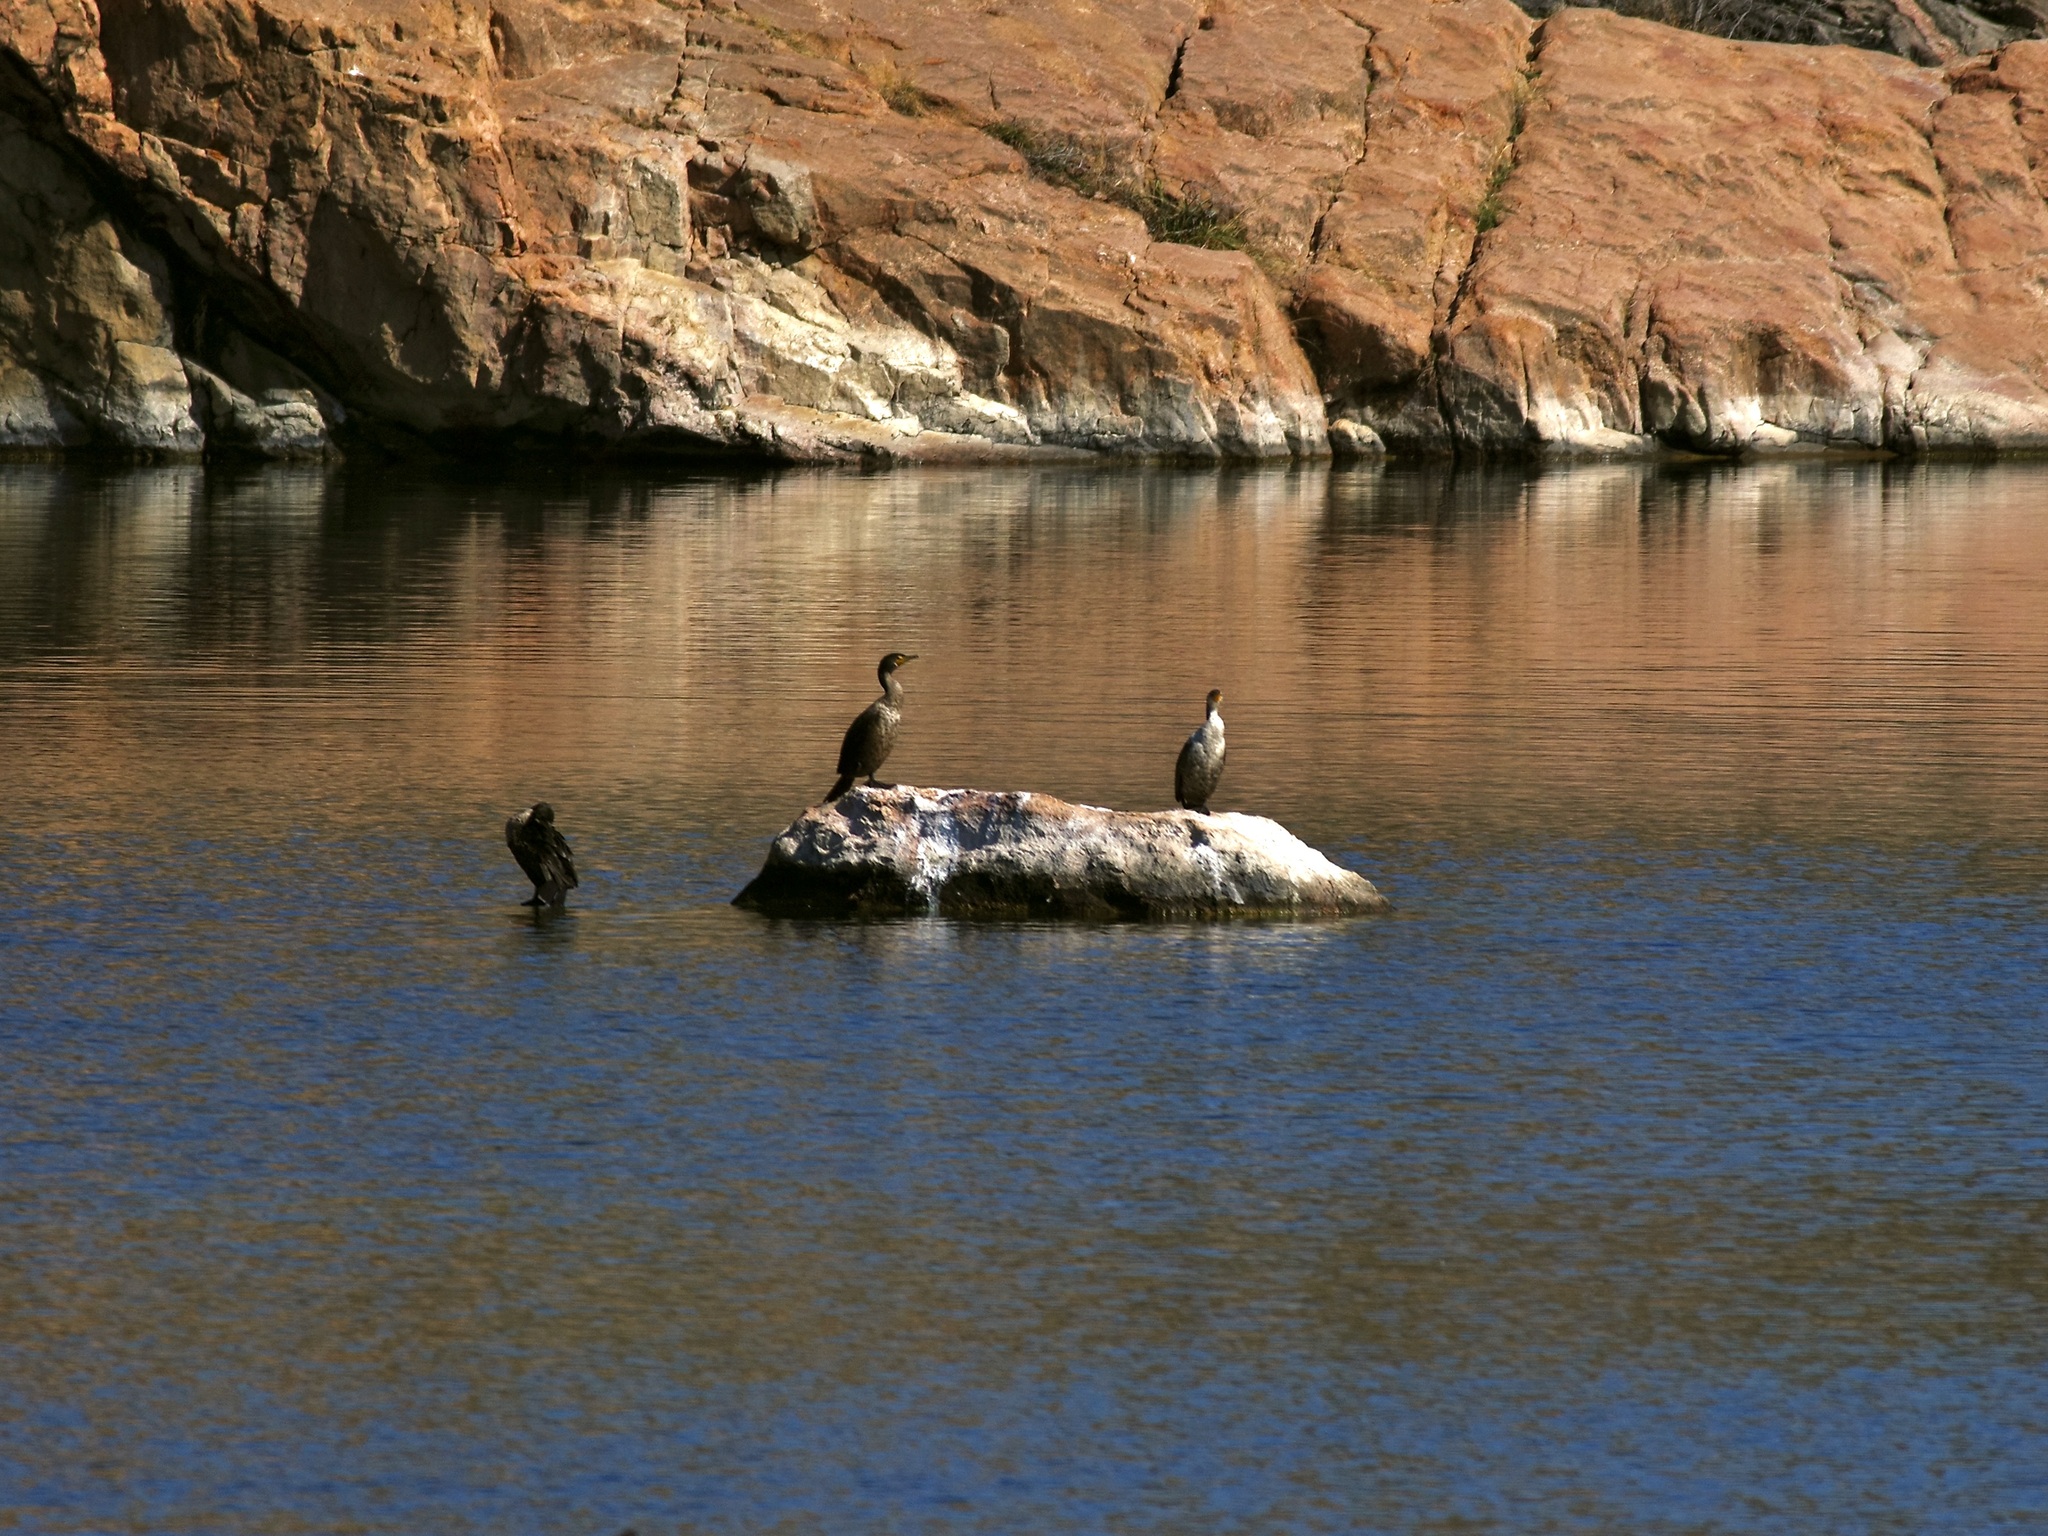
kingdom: Animalia
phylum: Chordata
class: Aves
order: Suliformes
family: Phalacrocoracidae
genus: Phalacrocorax
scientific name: Phalacrocorax auritus
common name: Double-crested cormorant
